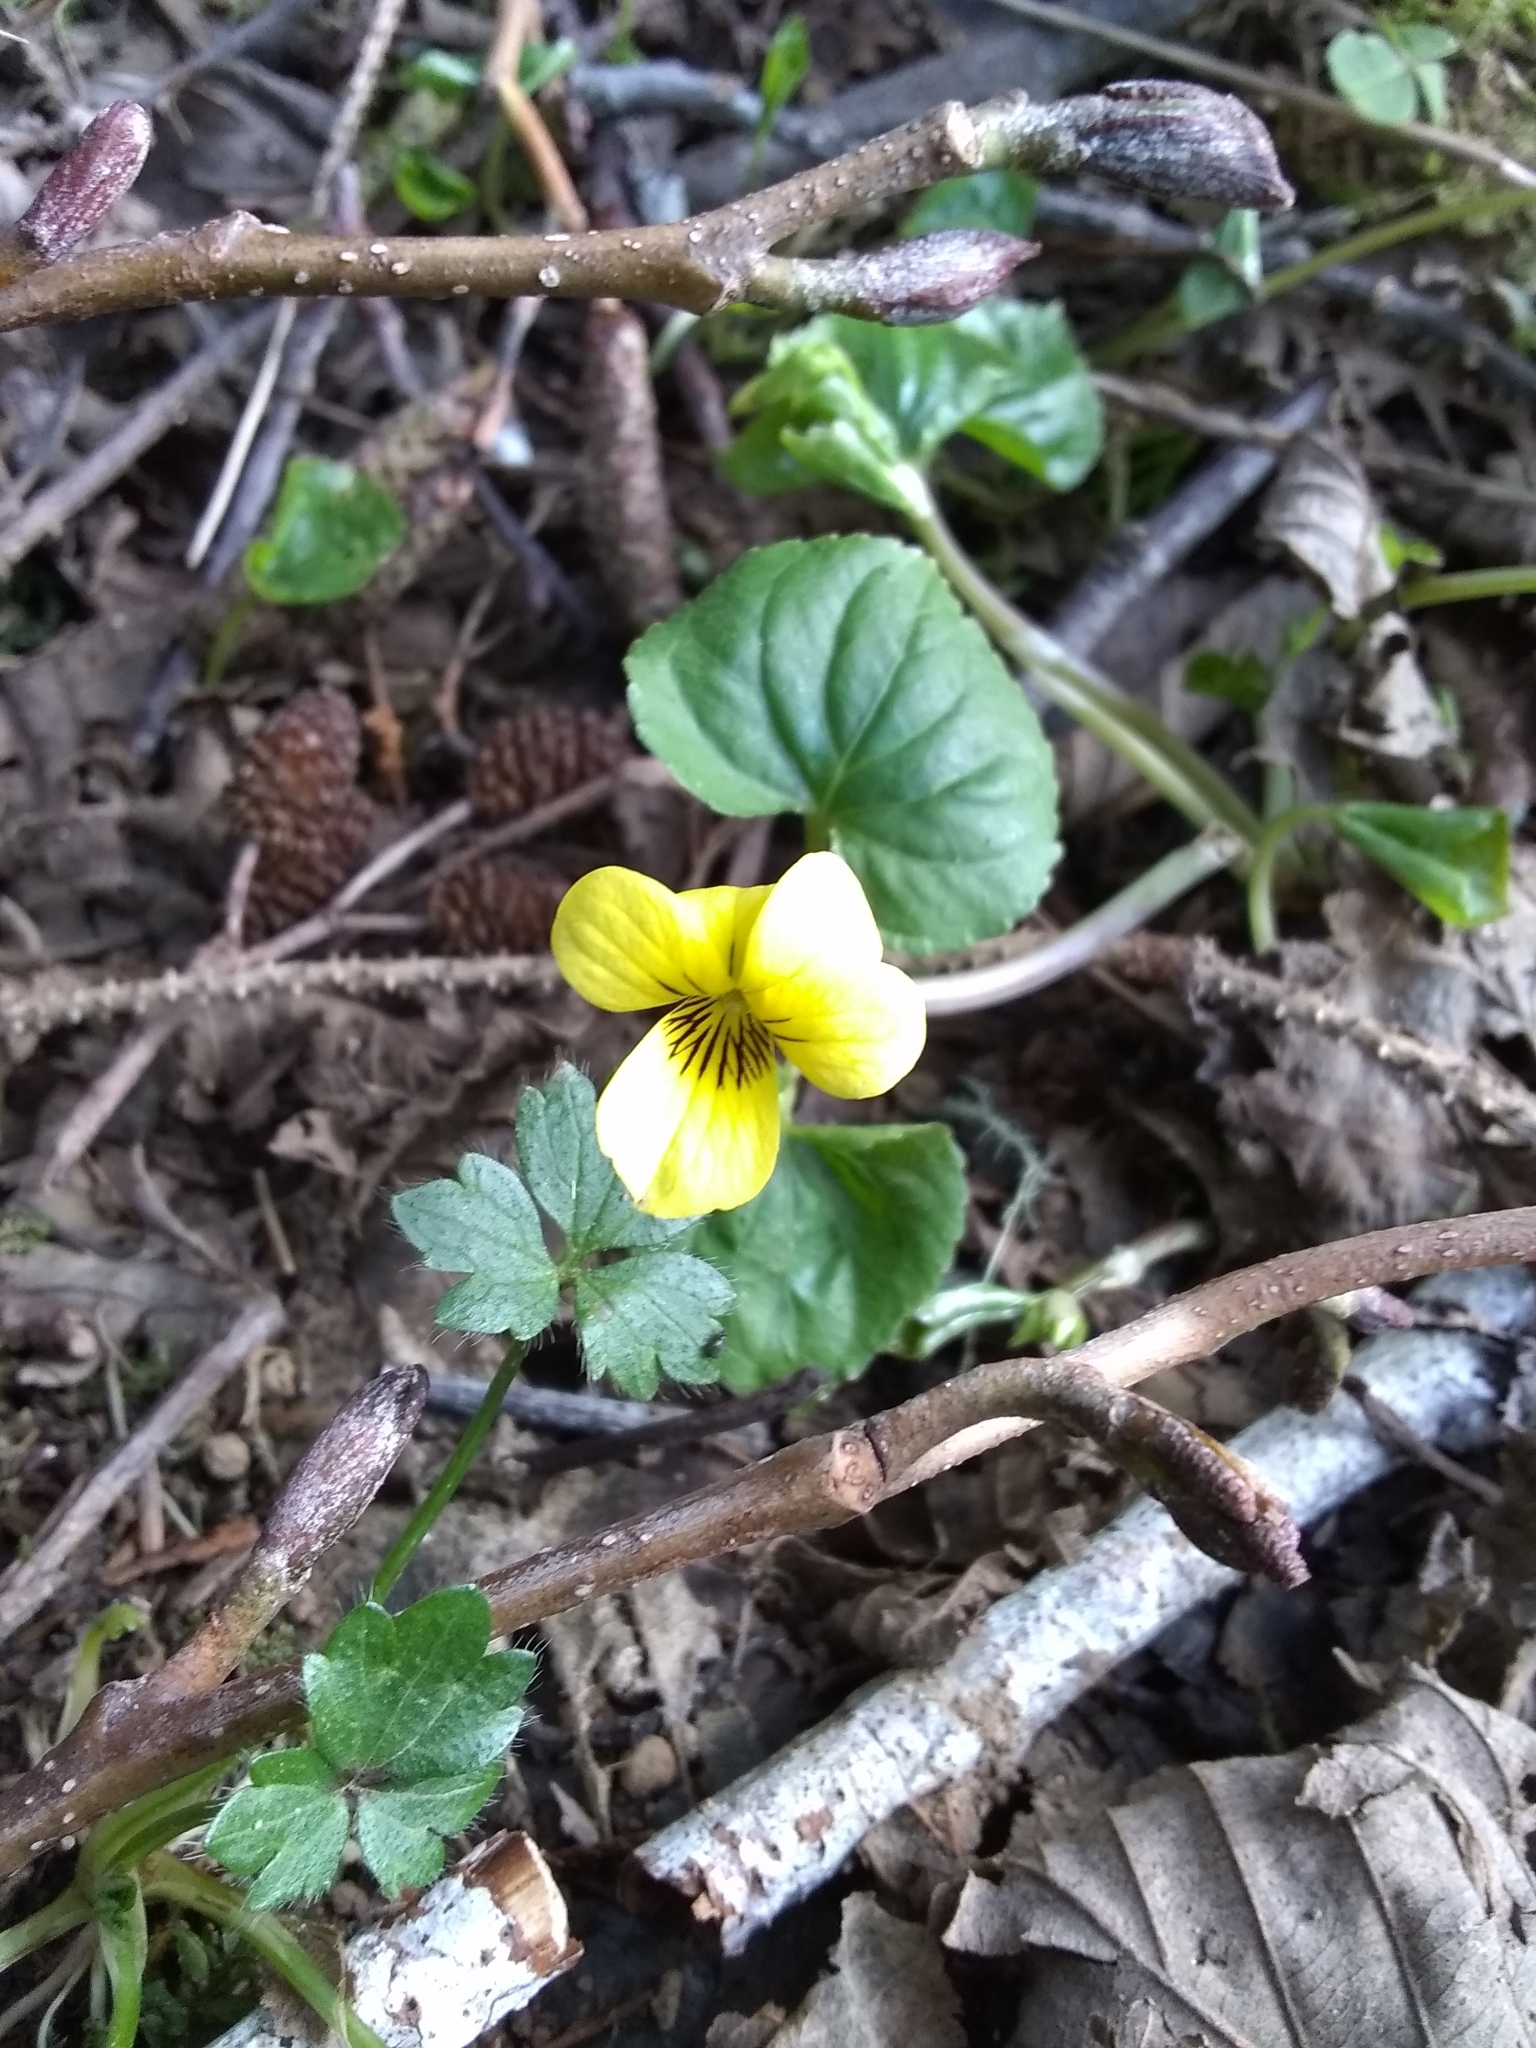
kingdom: Plantae
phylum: Tracheophyta
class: Magnoliopsida
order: Malpighiales
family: Violaceae
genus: Viola
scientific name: Viola glabella
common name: Stream violet
